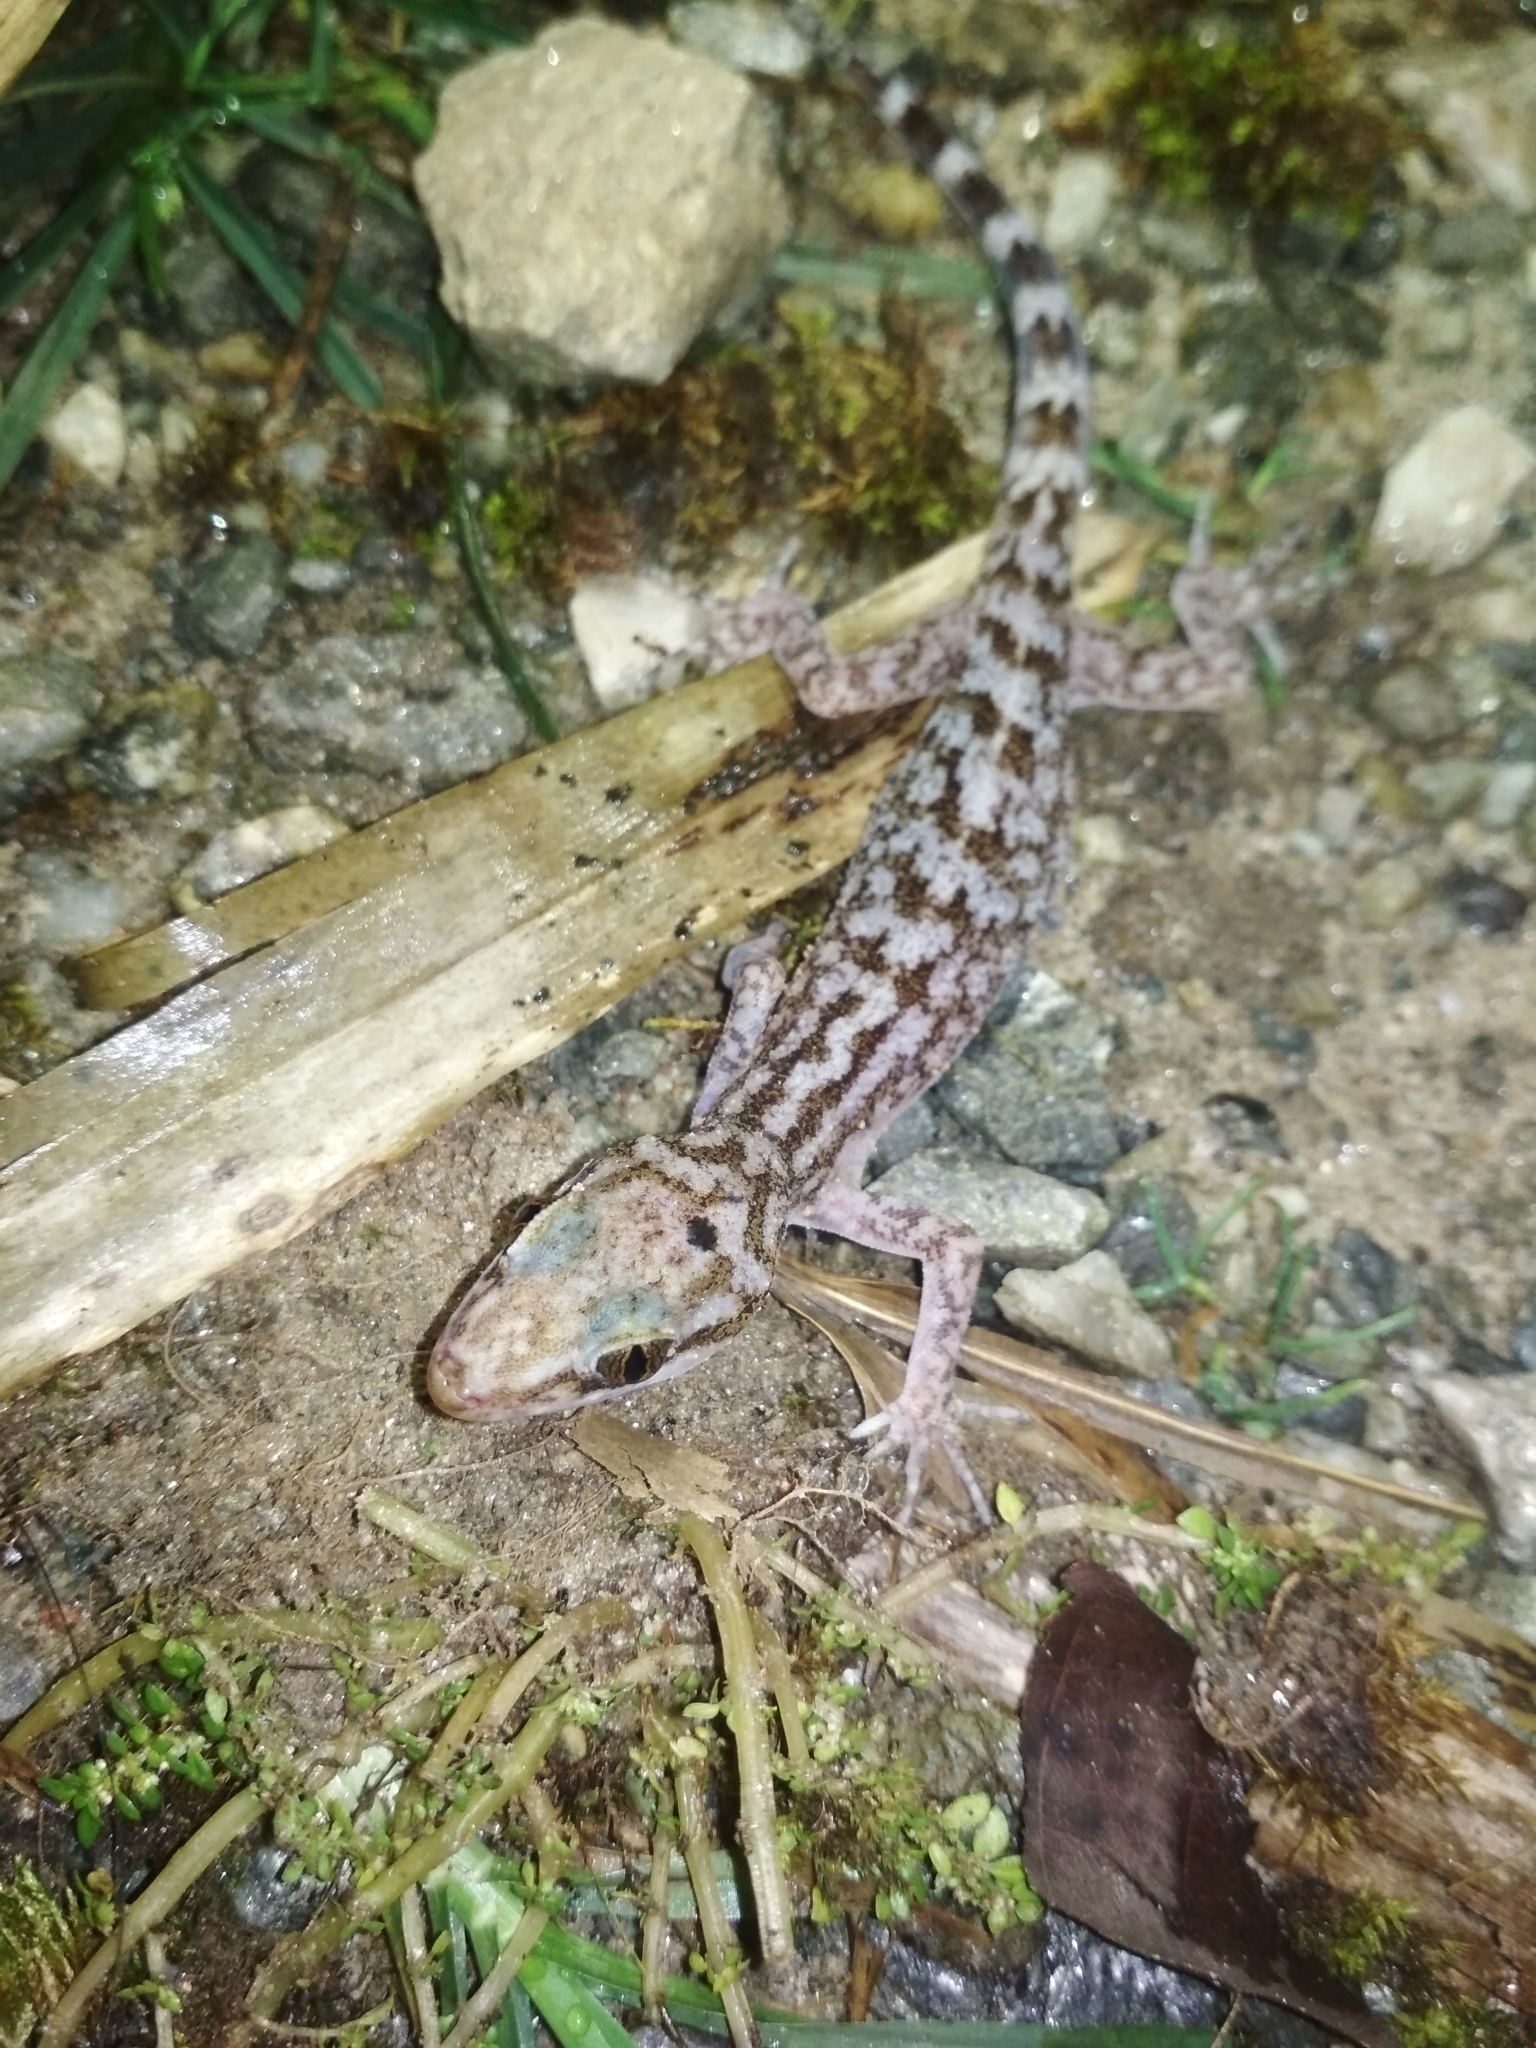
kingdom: Animalia
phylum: Chordata
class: Squamata
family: Gekkonidae
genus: Cyrtodactylus
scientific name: Cyrtodactylus khasiensis
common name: Khasi hills bent-toed gecko
